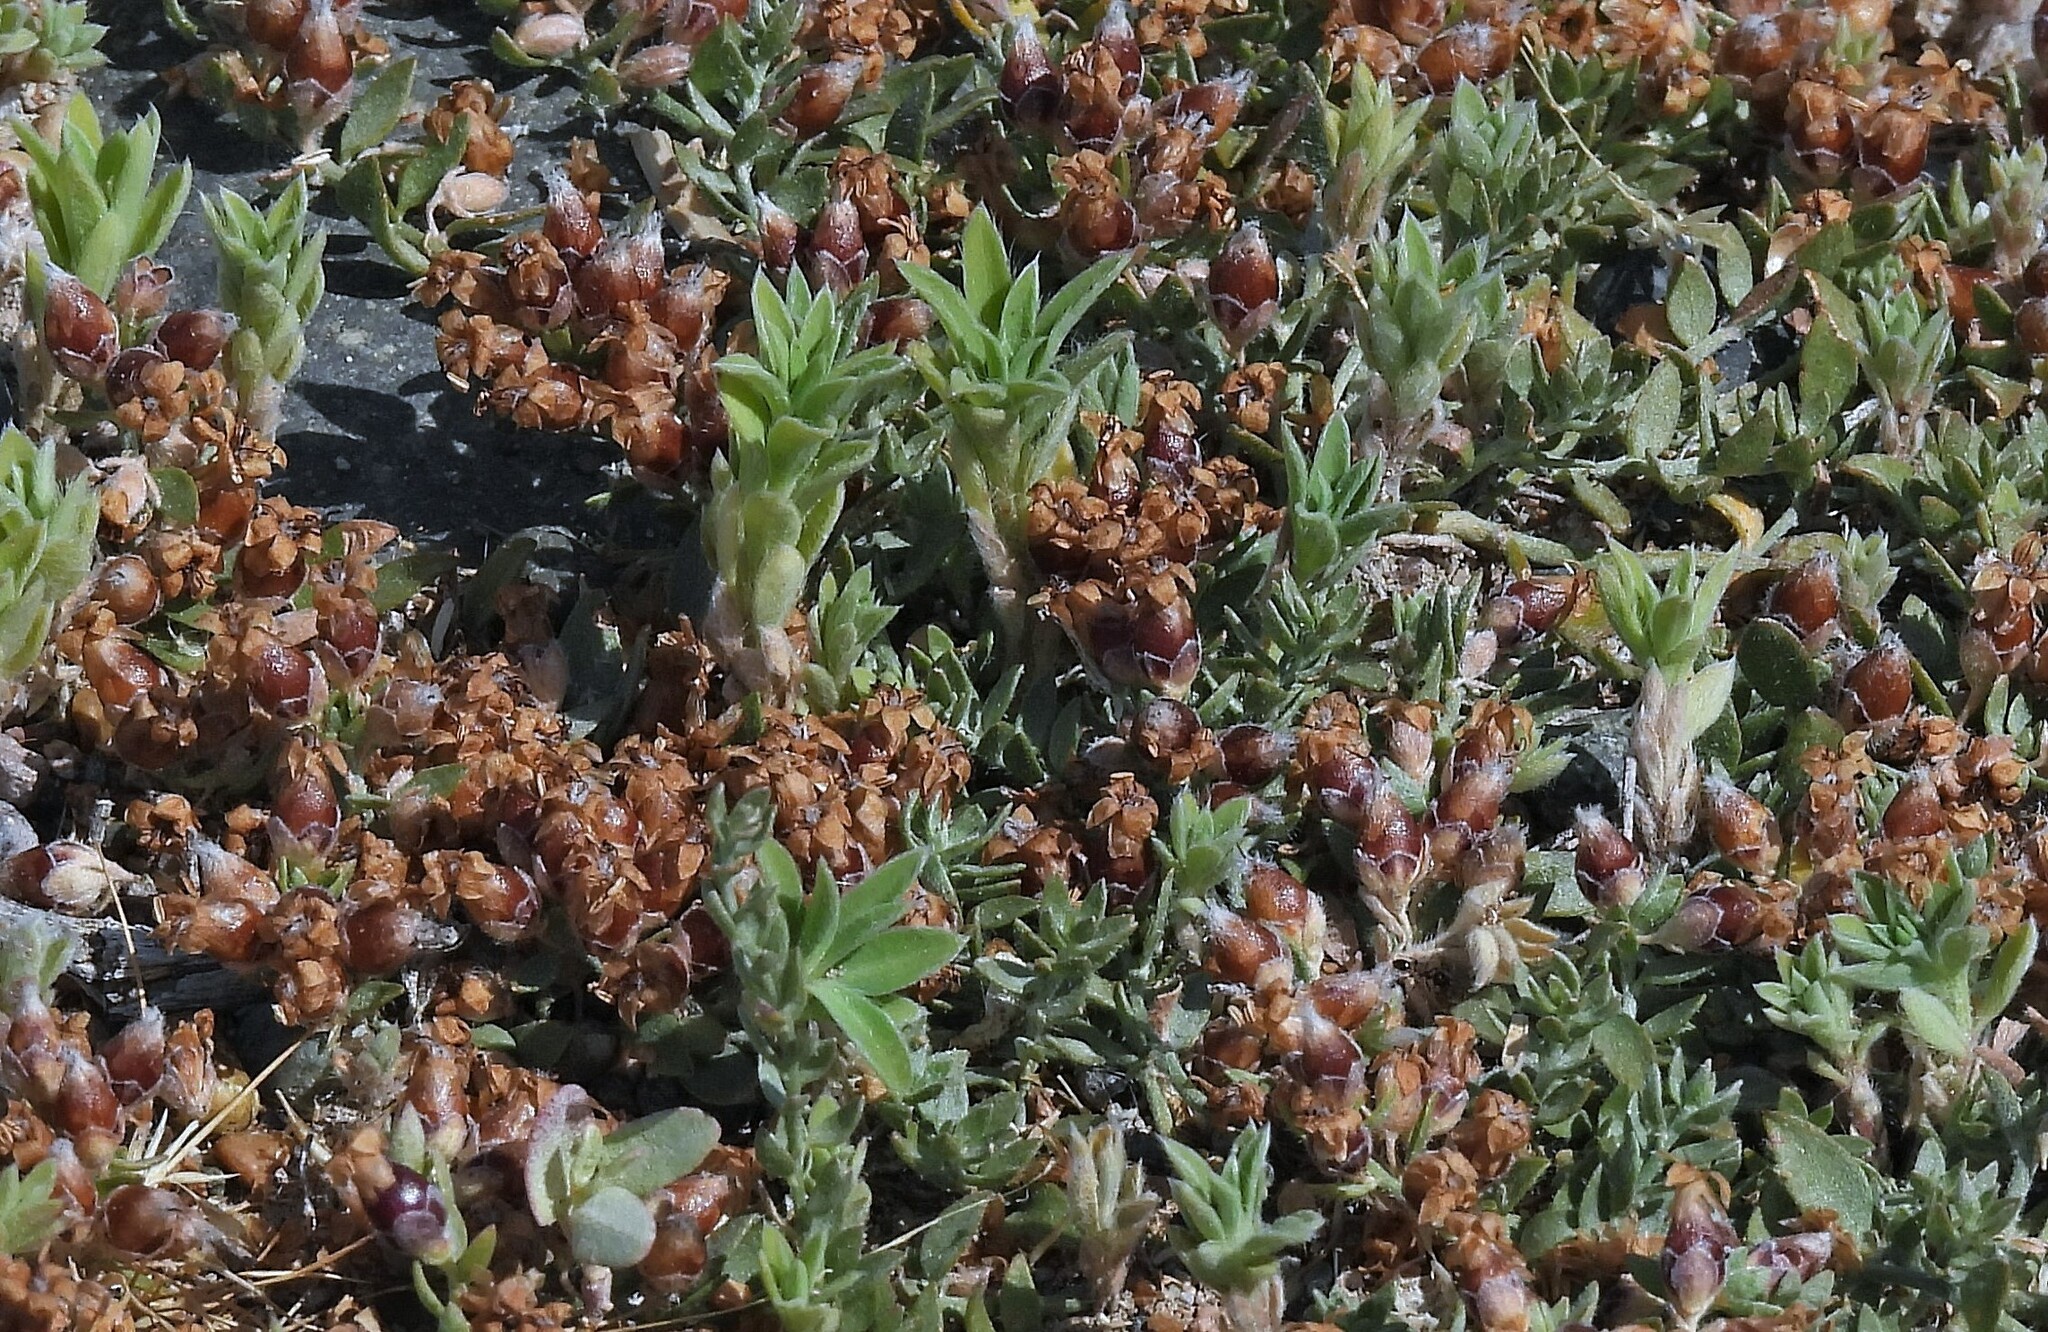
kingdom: Plantae
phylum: Tracheophyta
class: Magnoliopsida
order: Solanales
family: Convolvulaceae
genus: Cressa
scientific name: Cressa truxillensis
